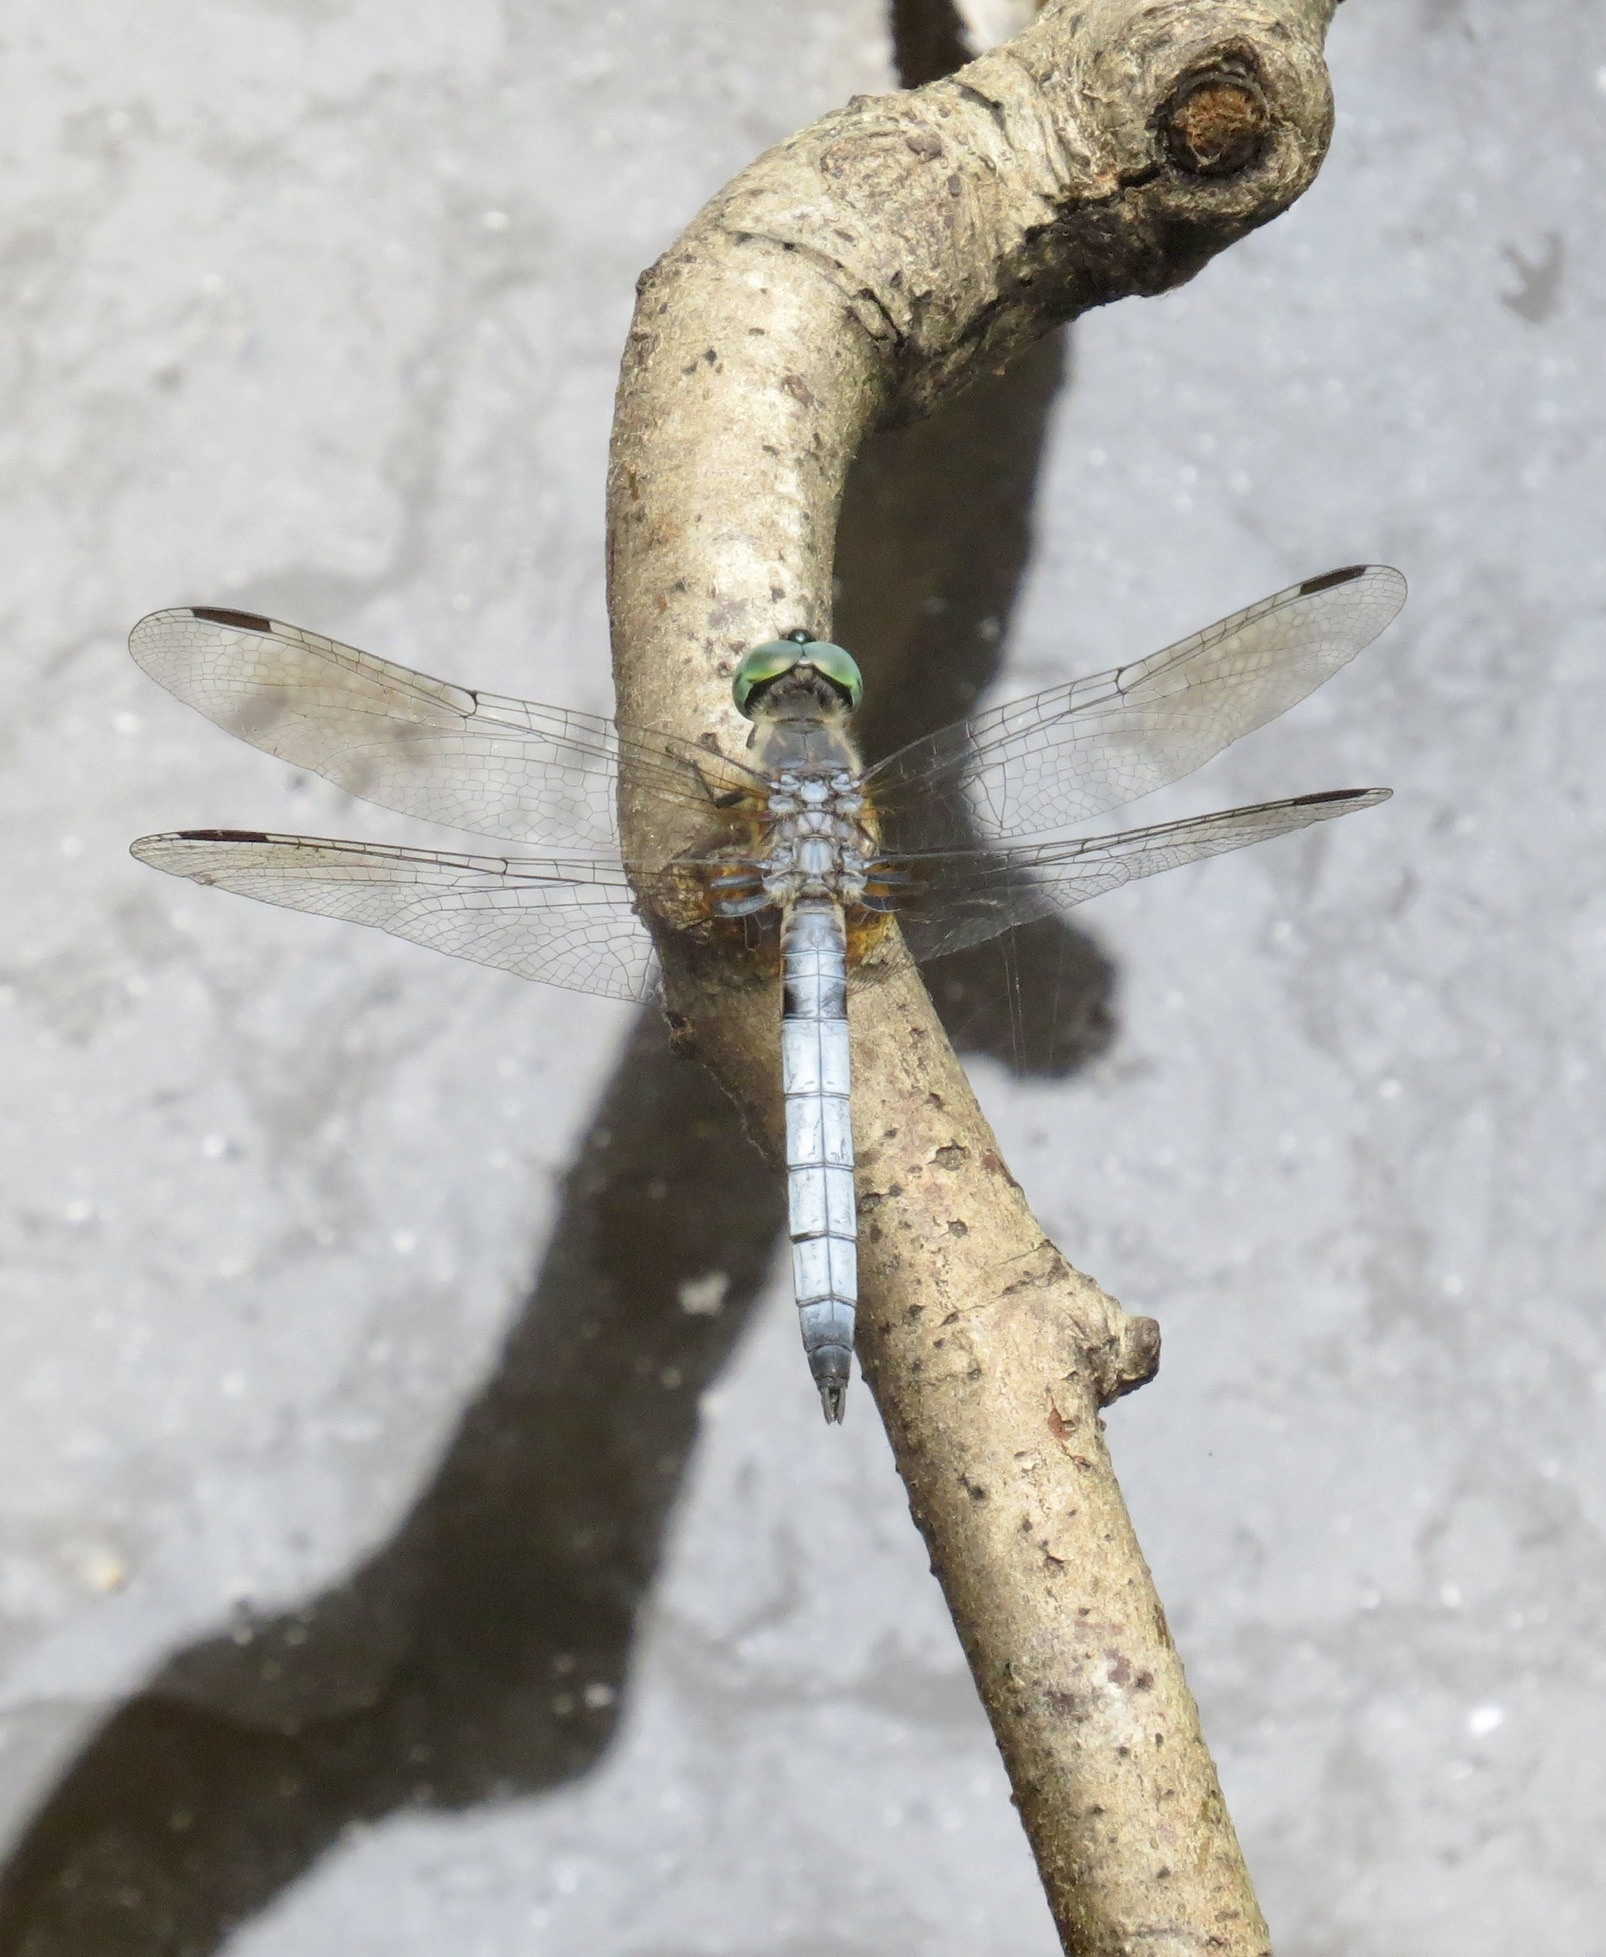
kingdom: Animalia
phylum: Arthropoda
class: Insecta
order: Odonata
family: Libellulidae
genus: Pachydiplax
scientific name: Pachydiplax longipennis
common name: Blue dasher
